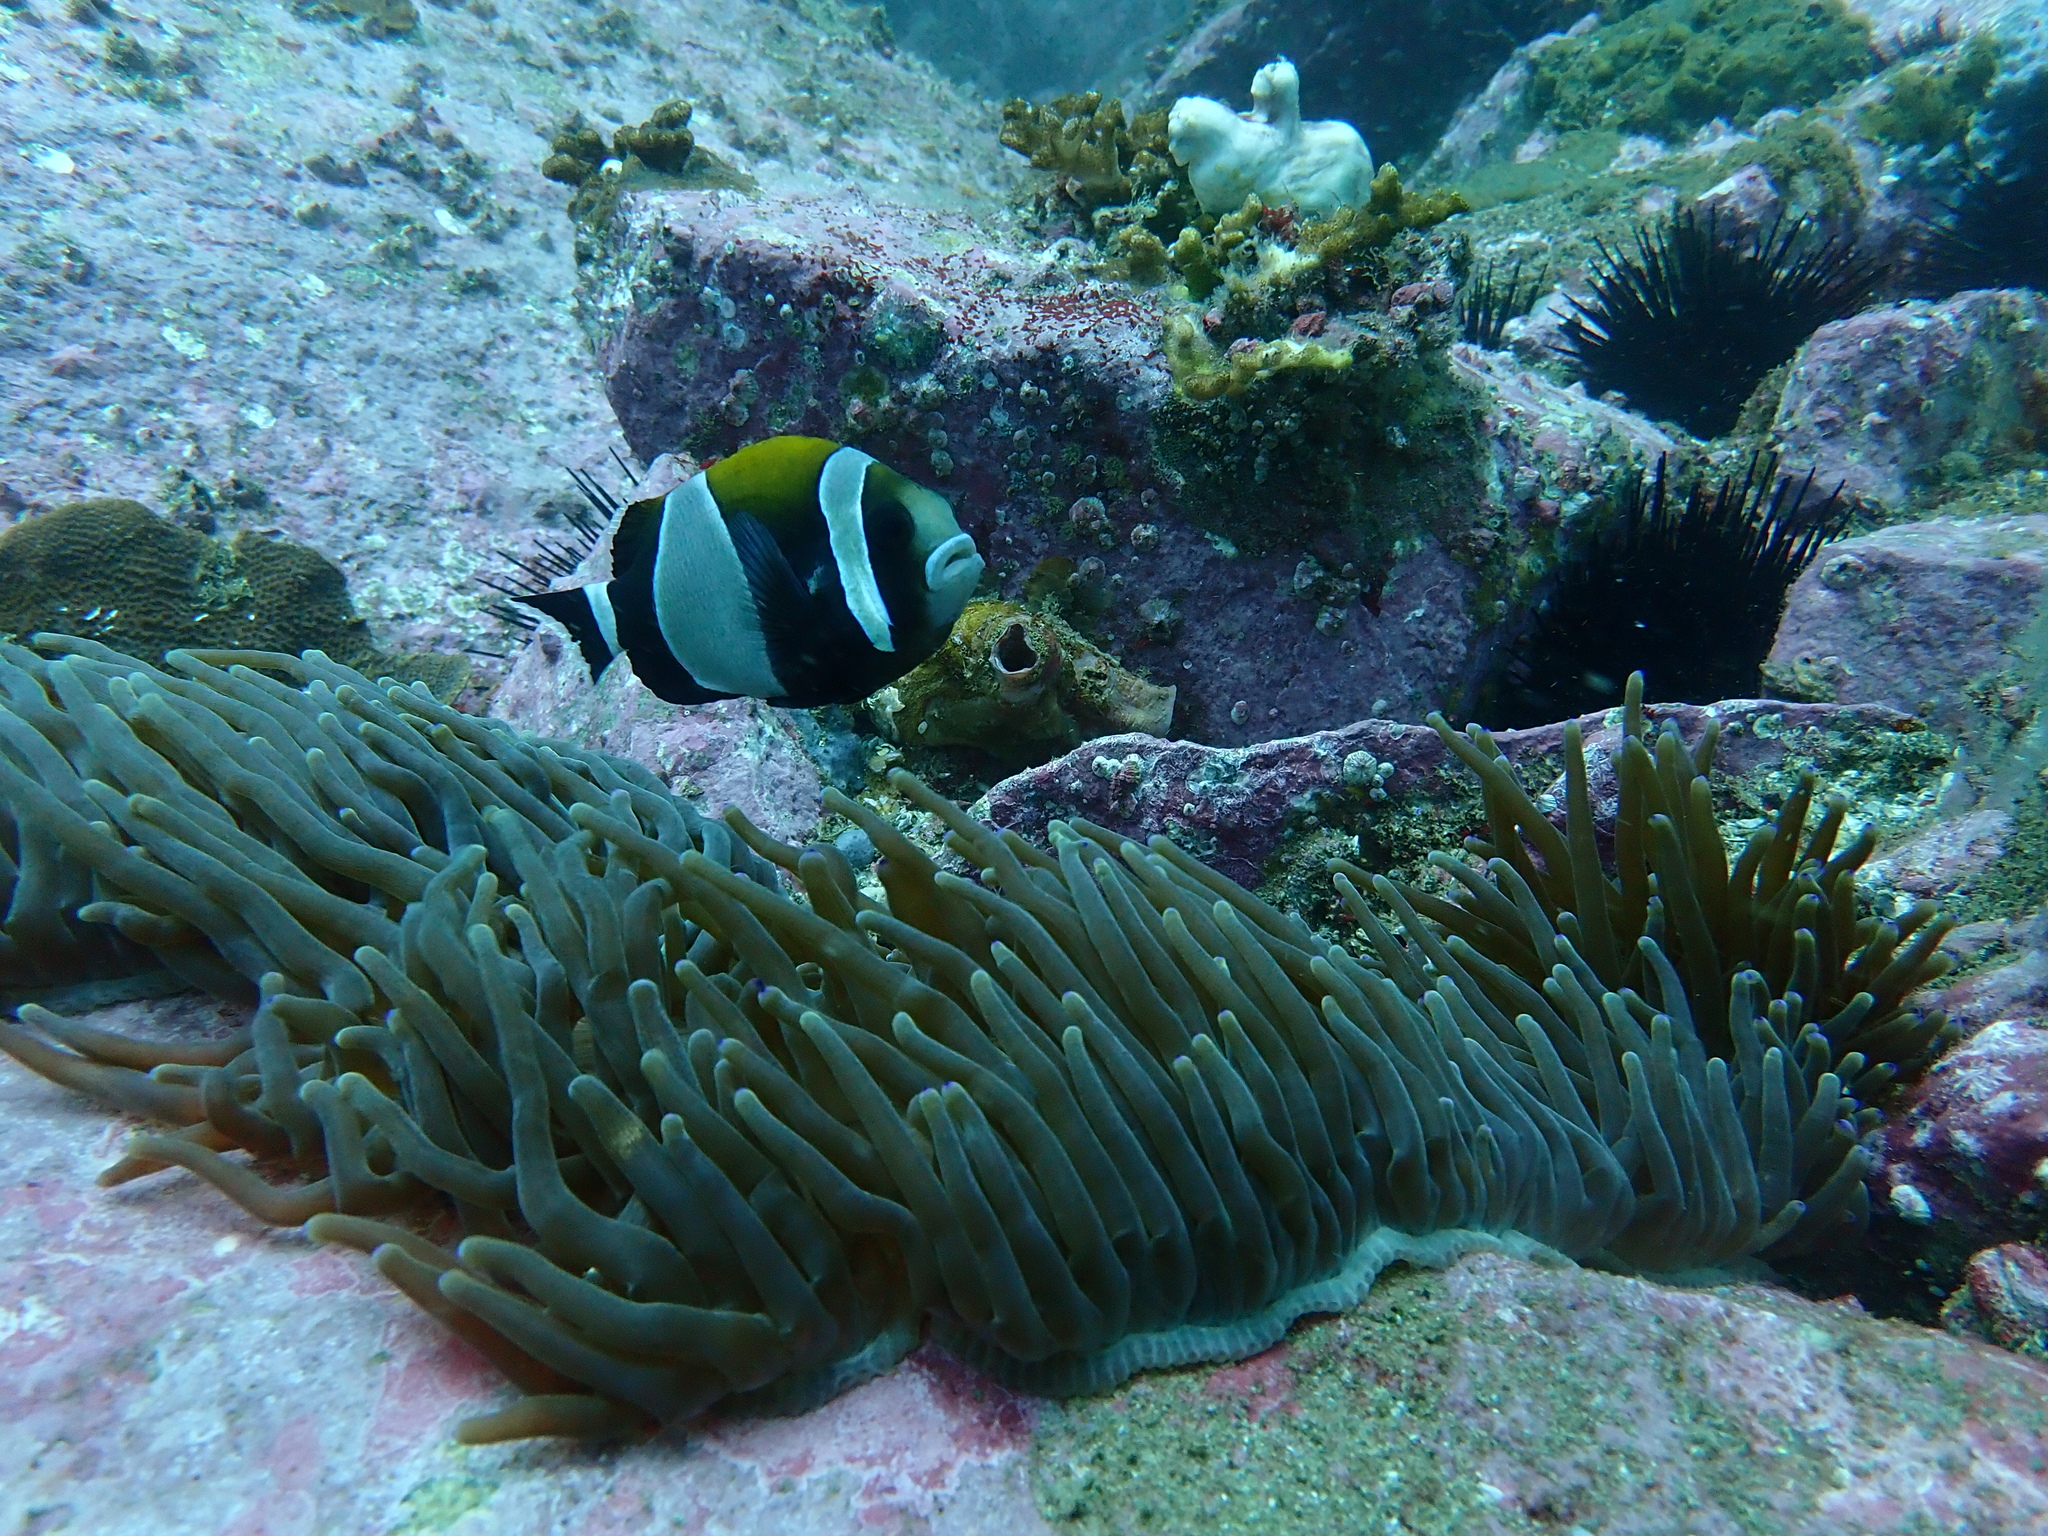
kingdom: Animalia
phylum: Cnidaria
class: Anthozoa
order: Actiniaria
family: Actiniidae
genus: Entacmaea
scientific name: Entacmaea quadricolor
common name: Bulb tentacle sea anemone
